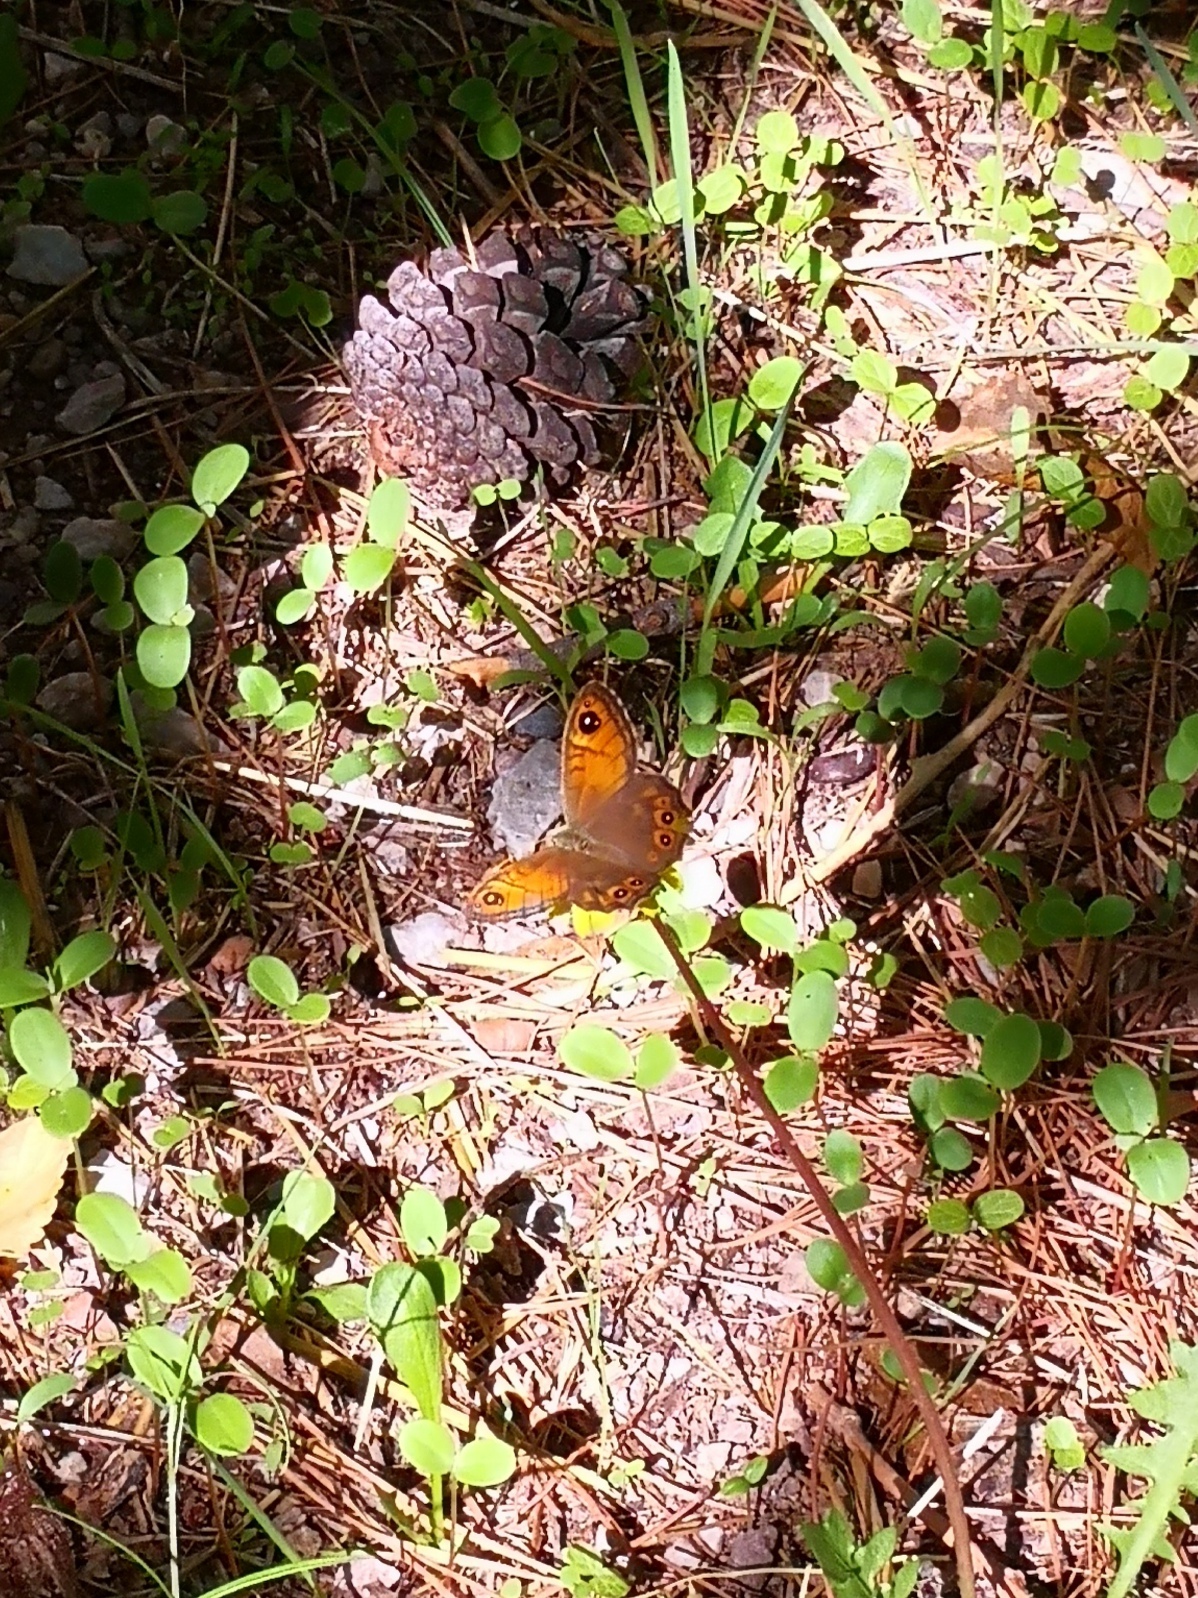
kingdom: Animalia
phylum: Arthropoda
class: Insecta
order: Lepidoptera
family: Nymphalidae
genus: Pararge
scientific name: Pararge Lasiommata maera
